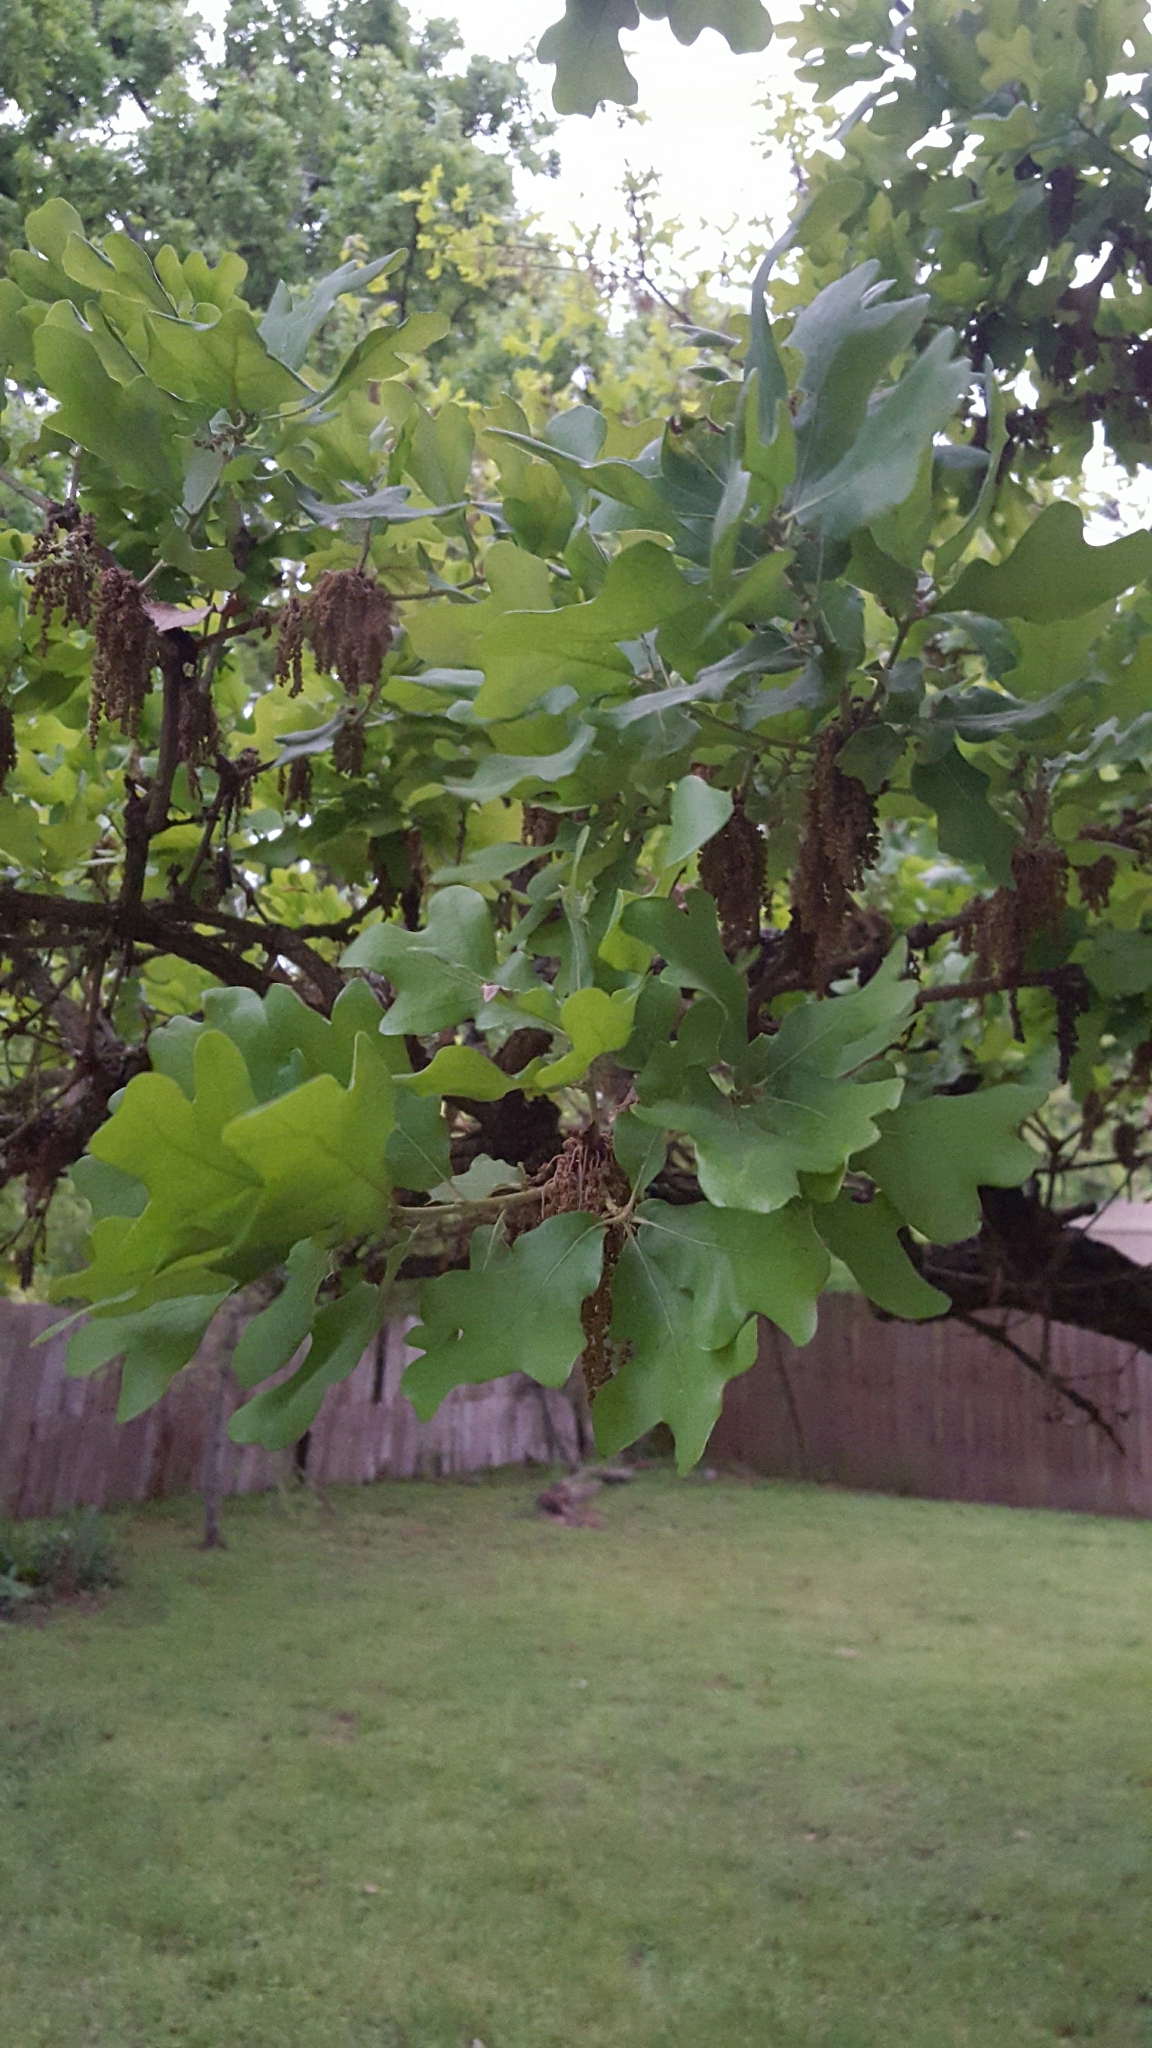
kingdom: Plantae
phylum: Tracheophyta
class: Magnoliopsida
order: Fagales
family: Fagaceae
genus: Quercus
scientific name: Quercus stellata
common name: Post oak
